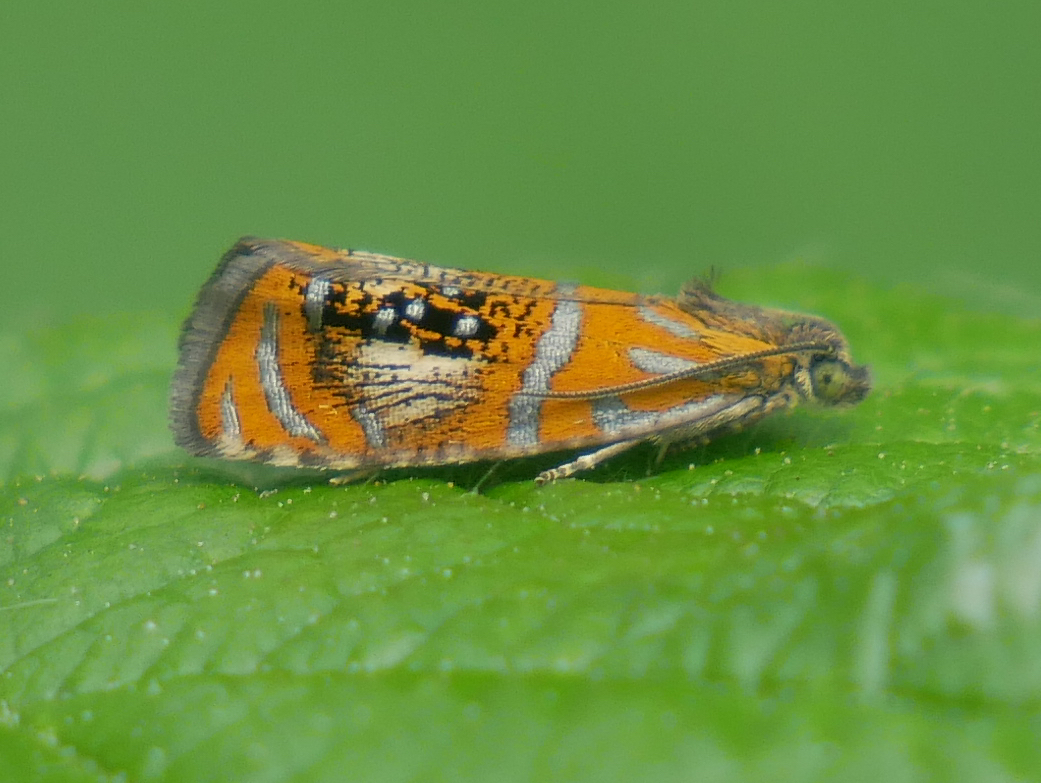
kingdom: Animalia
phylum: Arthropoda
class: Insecta
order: Lepidoptera
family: Tortricidae
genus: Olethreutes
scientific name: Olethreutes arcuella
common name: Arched marble
